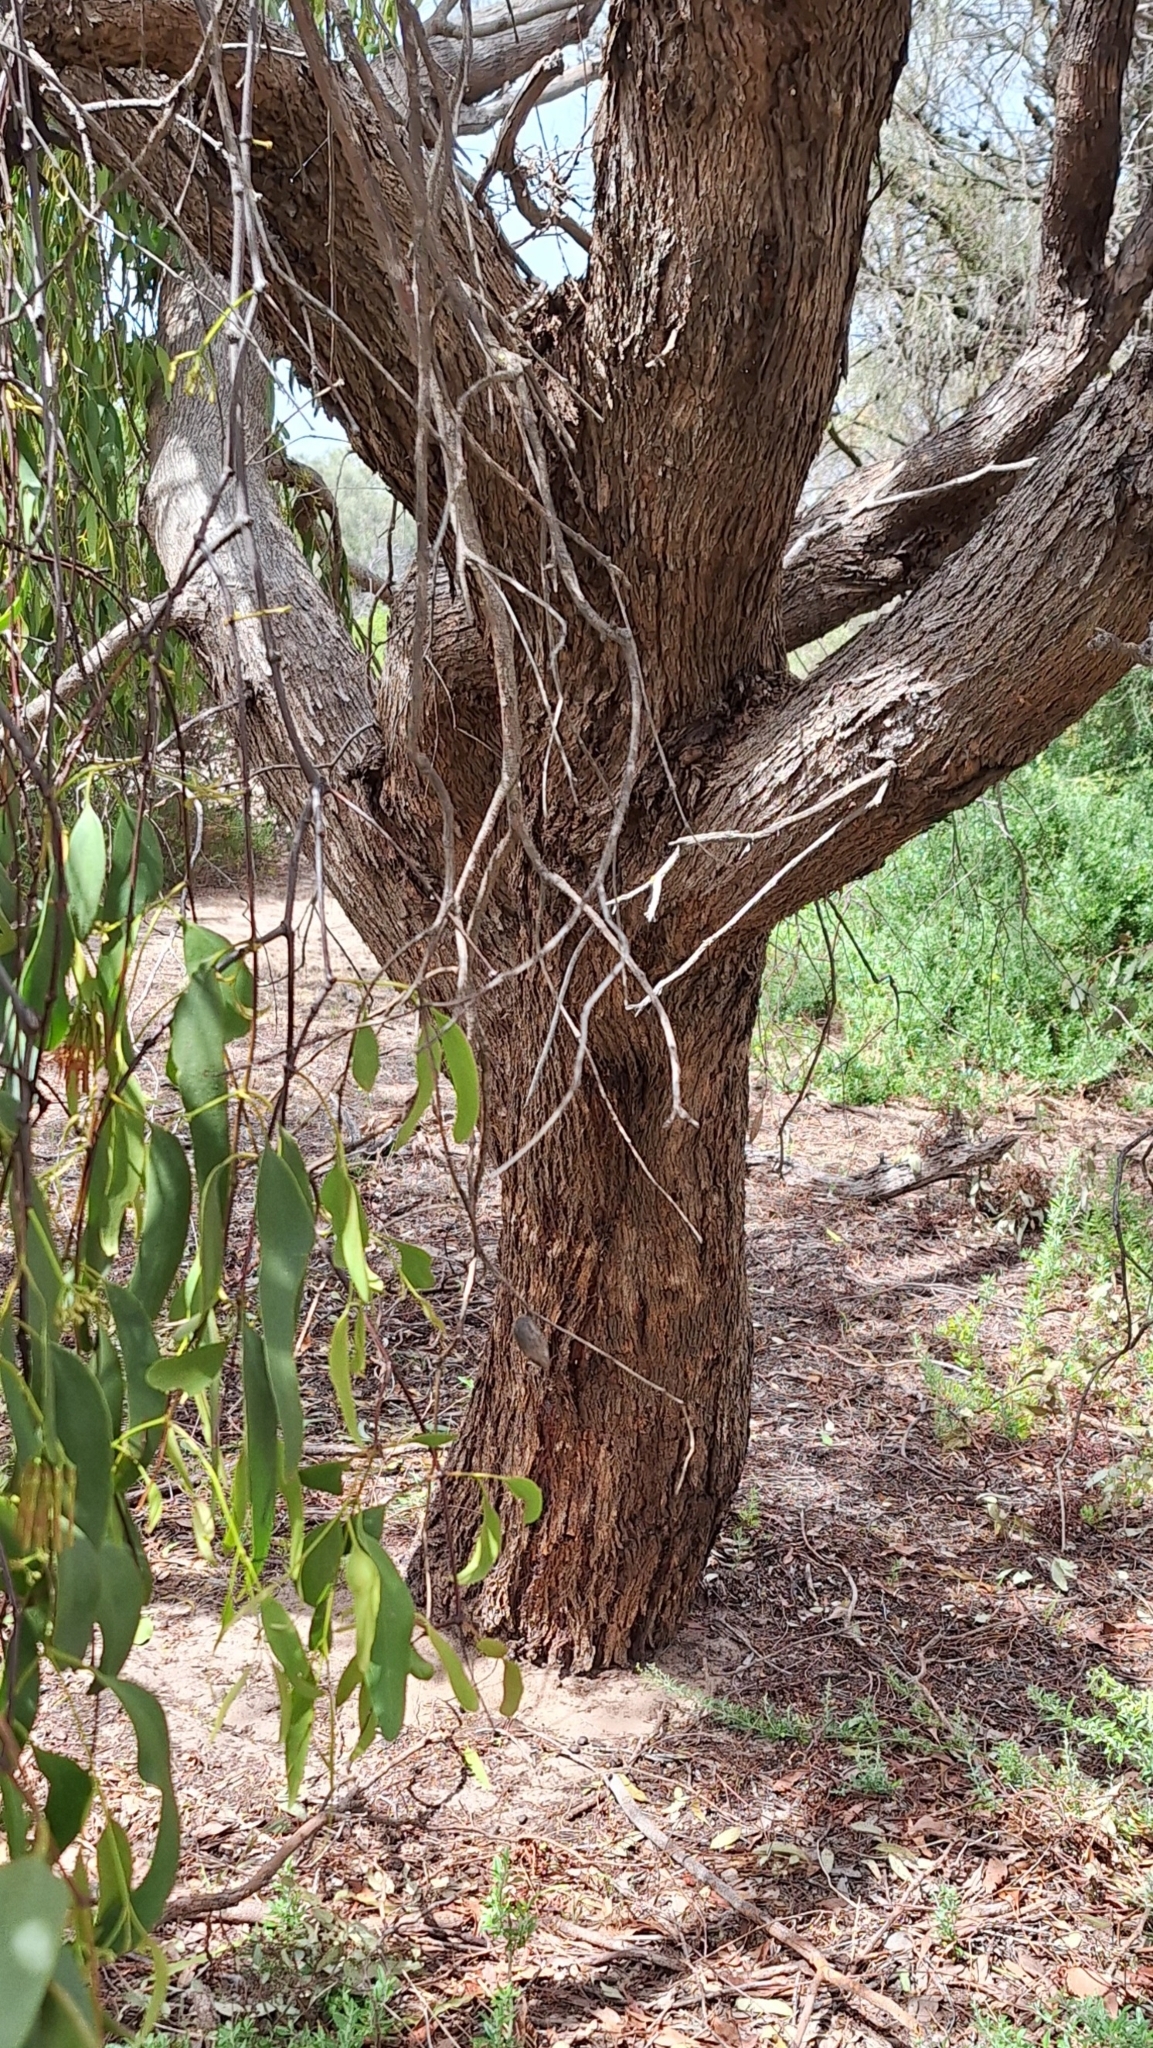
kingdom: Plantae
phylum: Tracheophyta
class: Magnoliopsida
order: Myrtales
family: Myrtaceae
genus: Eucalyptus
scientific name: Eucalyptus porosa
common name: Quorn mallee
